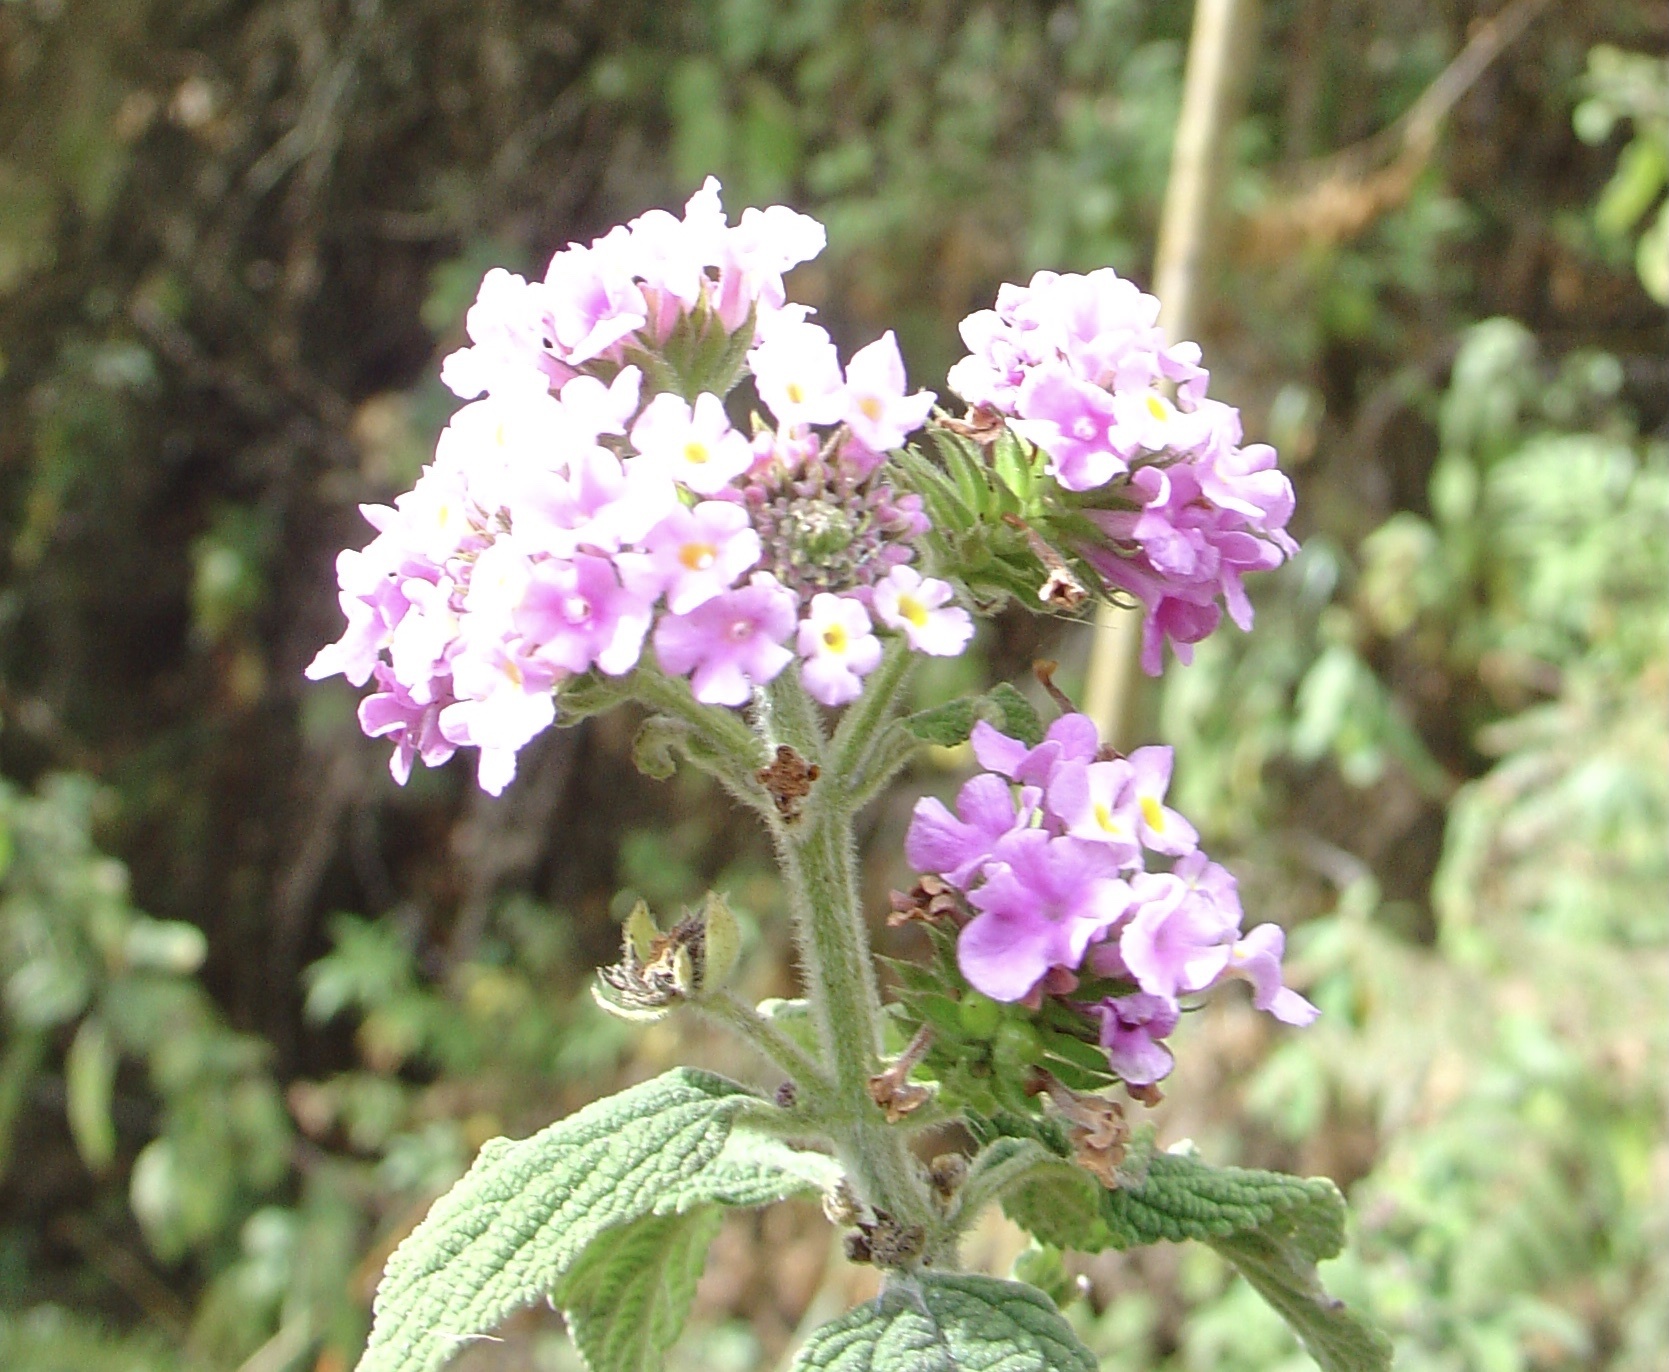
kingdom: Plantae
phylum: Tracheophyta
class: Magnoliopsida
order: Lamiales
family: Verbenaceae
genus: Lantana
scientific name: Lantana camara
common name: Lantana
